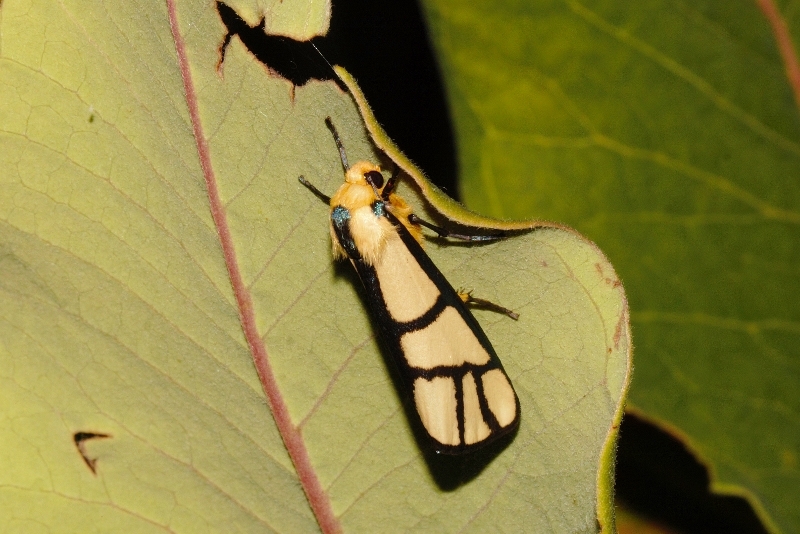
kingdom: Animalia
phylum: Arthropoda
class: Insecta
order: Lepidoptera
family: Erebidae
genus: Anaphosia
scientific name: Anaphosia cyanogramma
